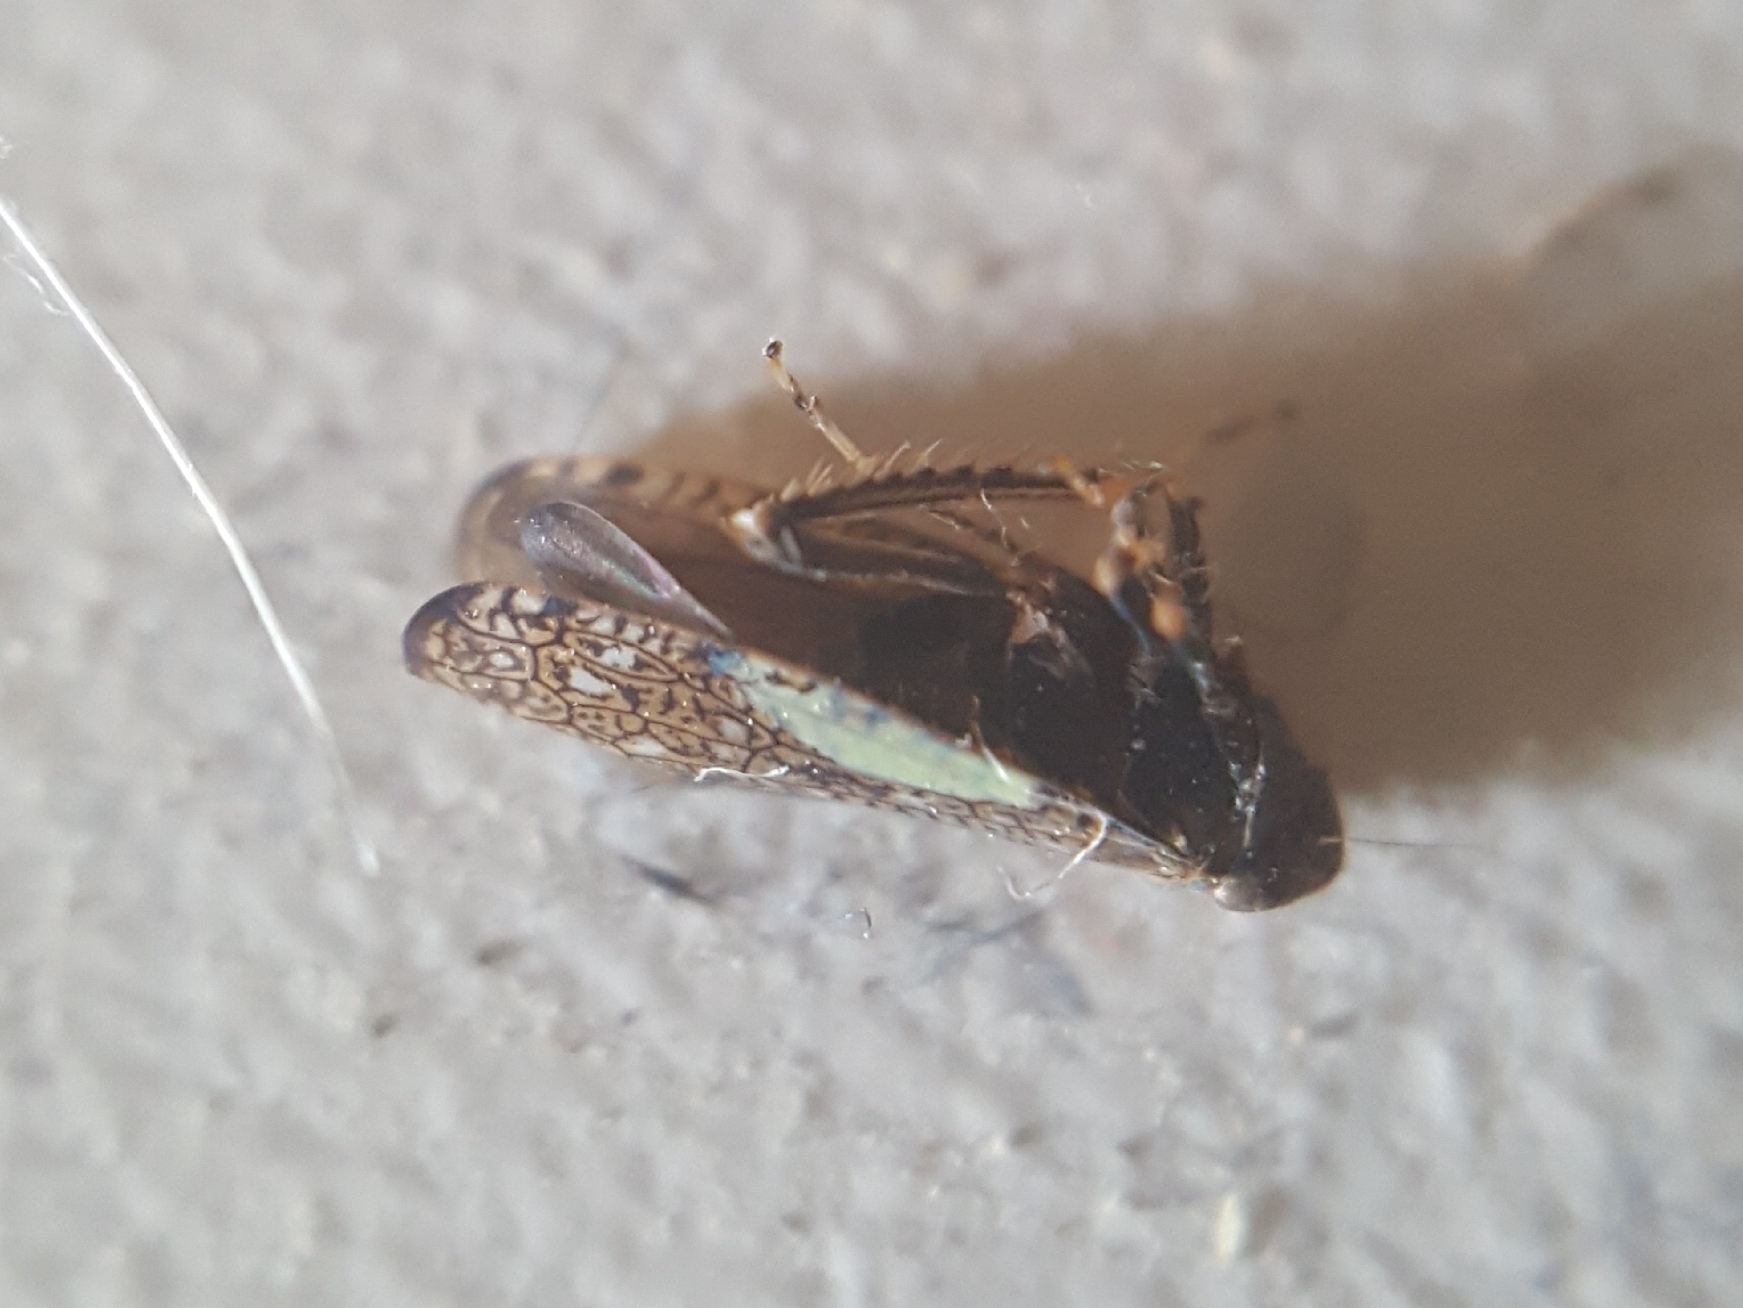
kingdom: Animalia
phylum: Arthropoda
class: Insecta
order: Hemiptera
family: Cicadellidae
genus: Orientus
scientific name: Orientus ishidae
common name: Japanese leafhopper
